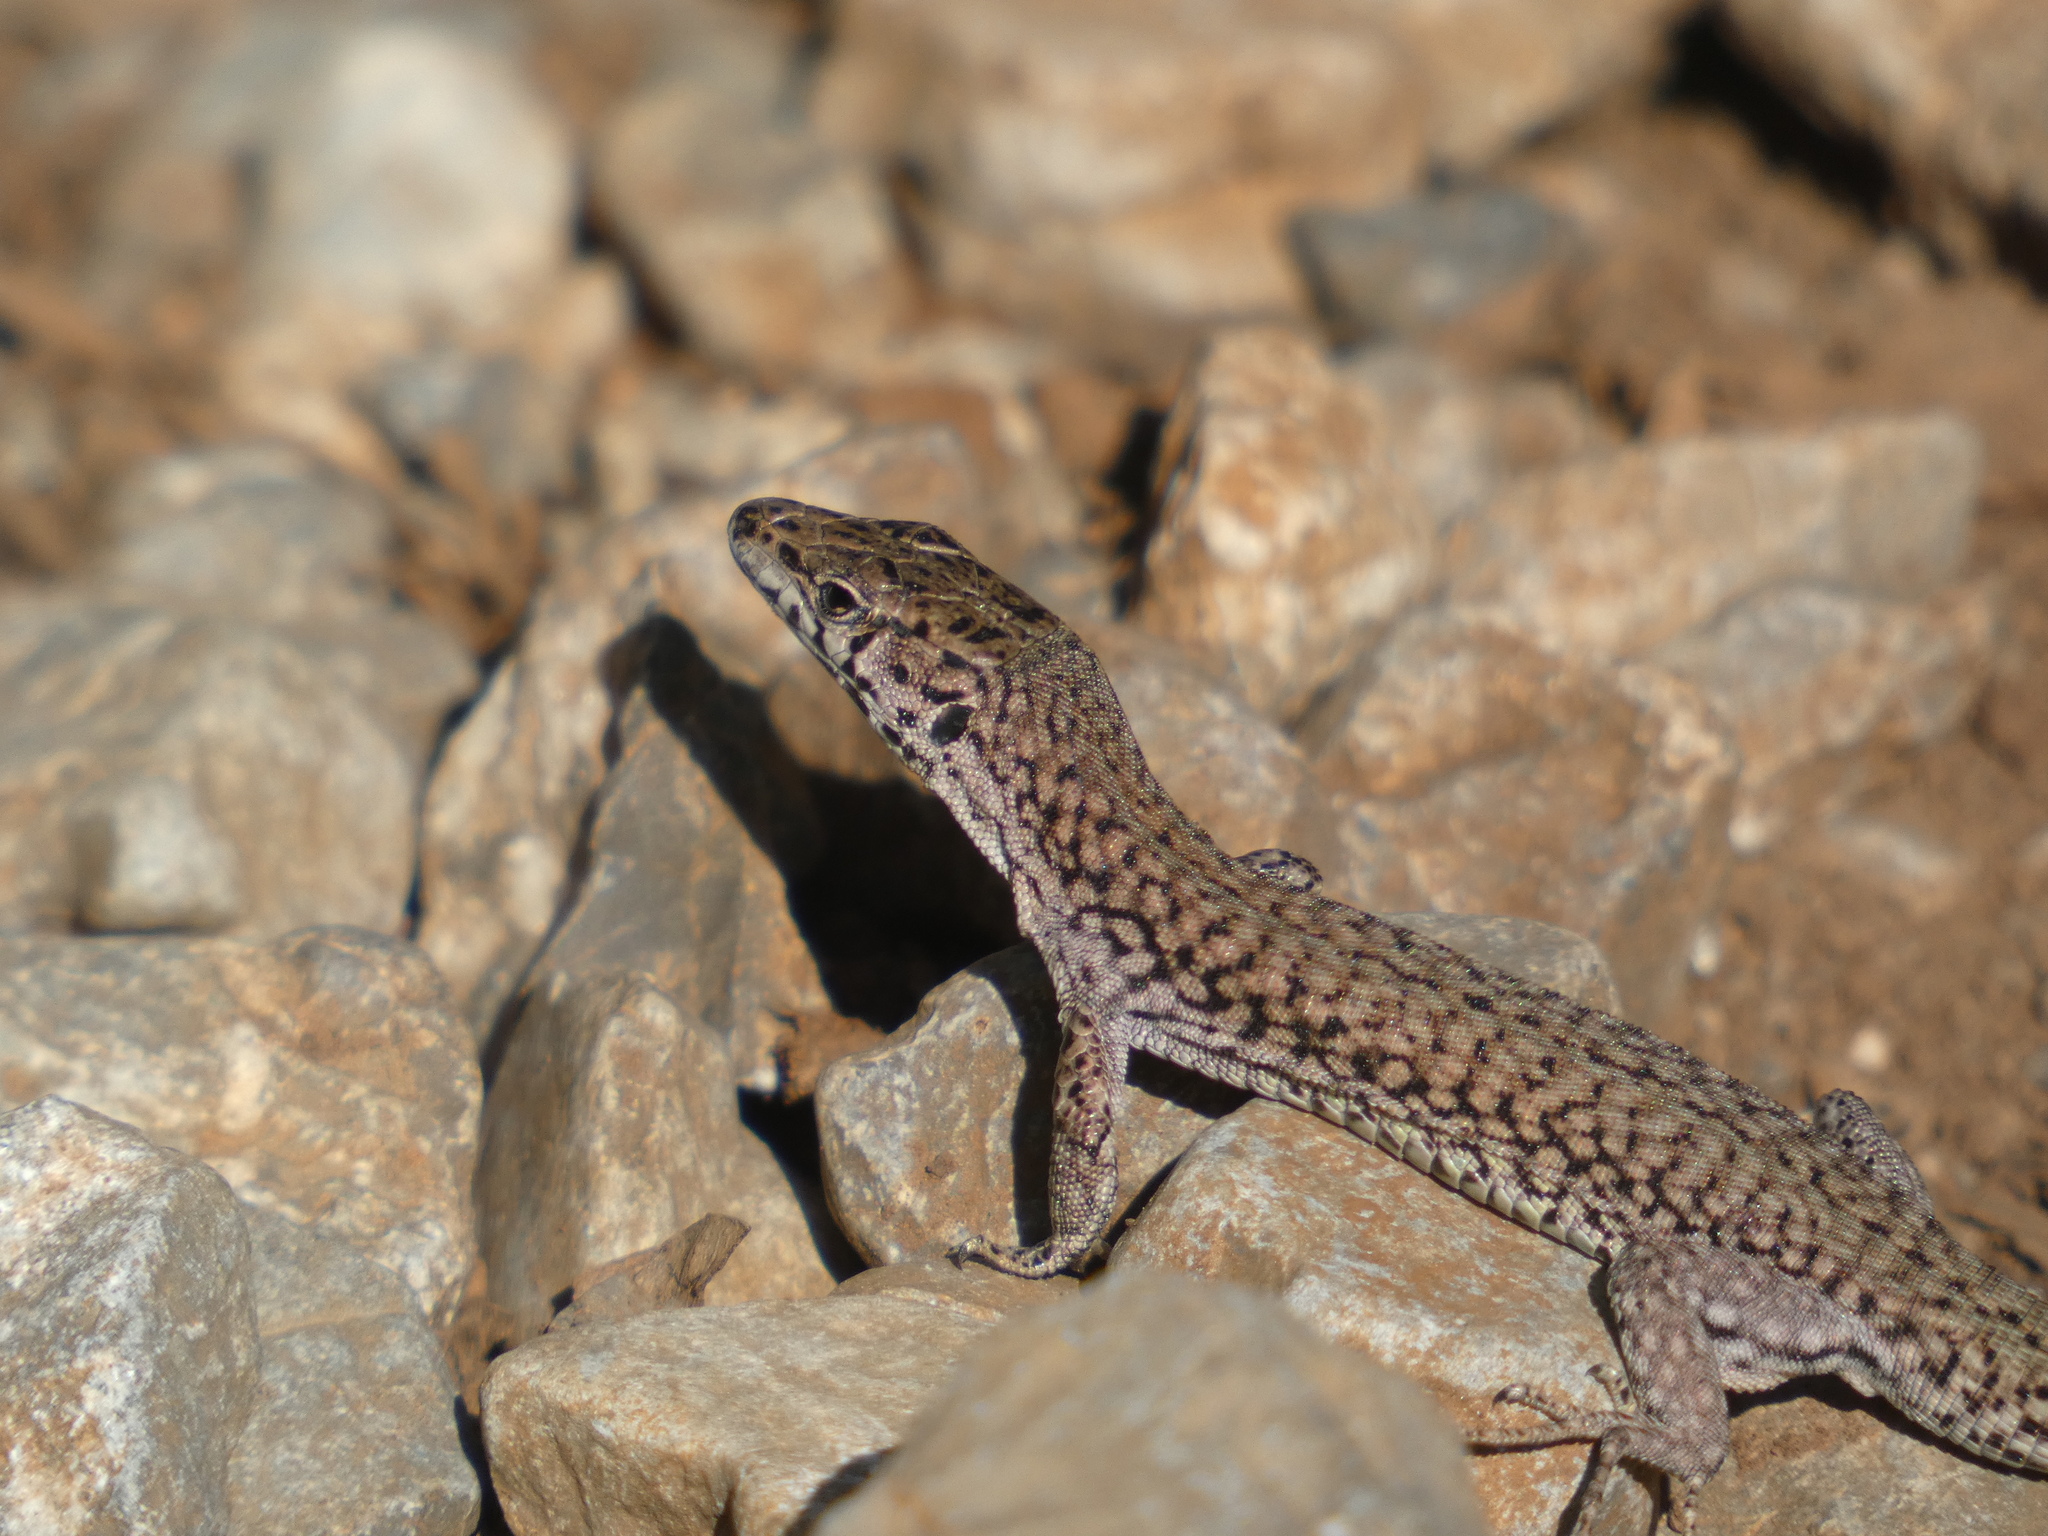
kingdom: Animalia
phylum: Chordata
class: Squamata
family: Lacertidae
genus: Podarcis
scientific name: Podarcis liolepis
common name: Catalonian wall lizard
